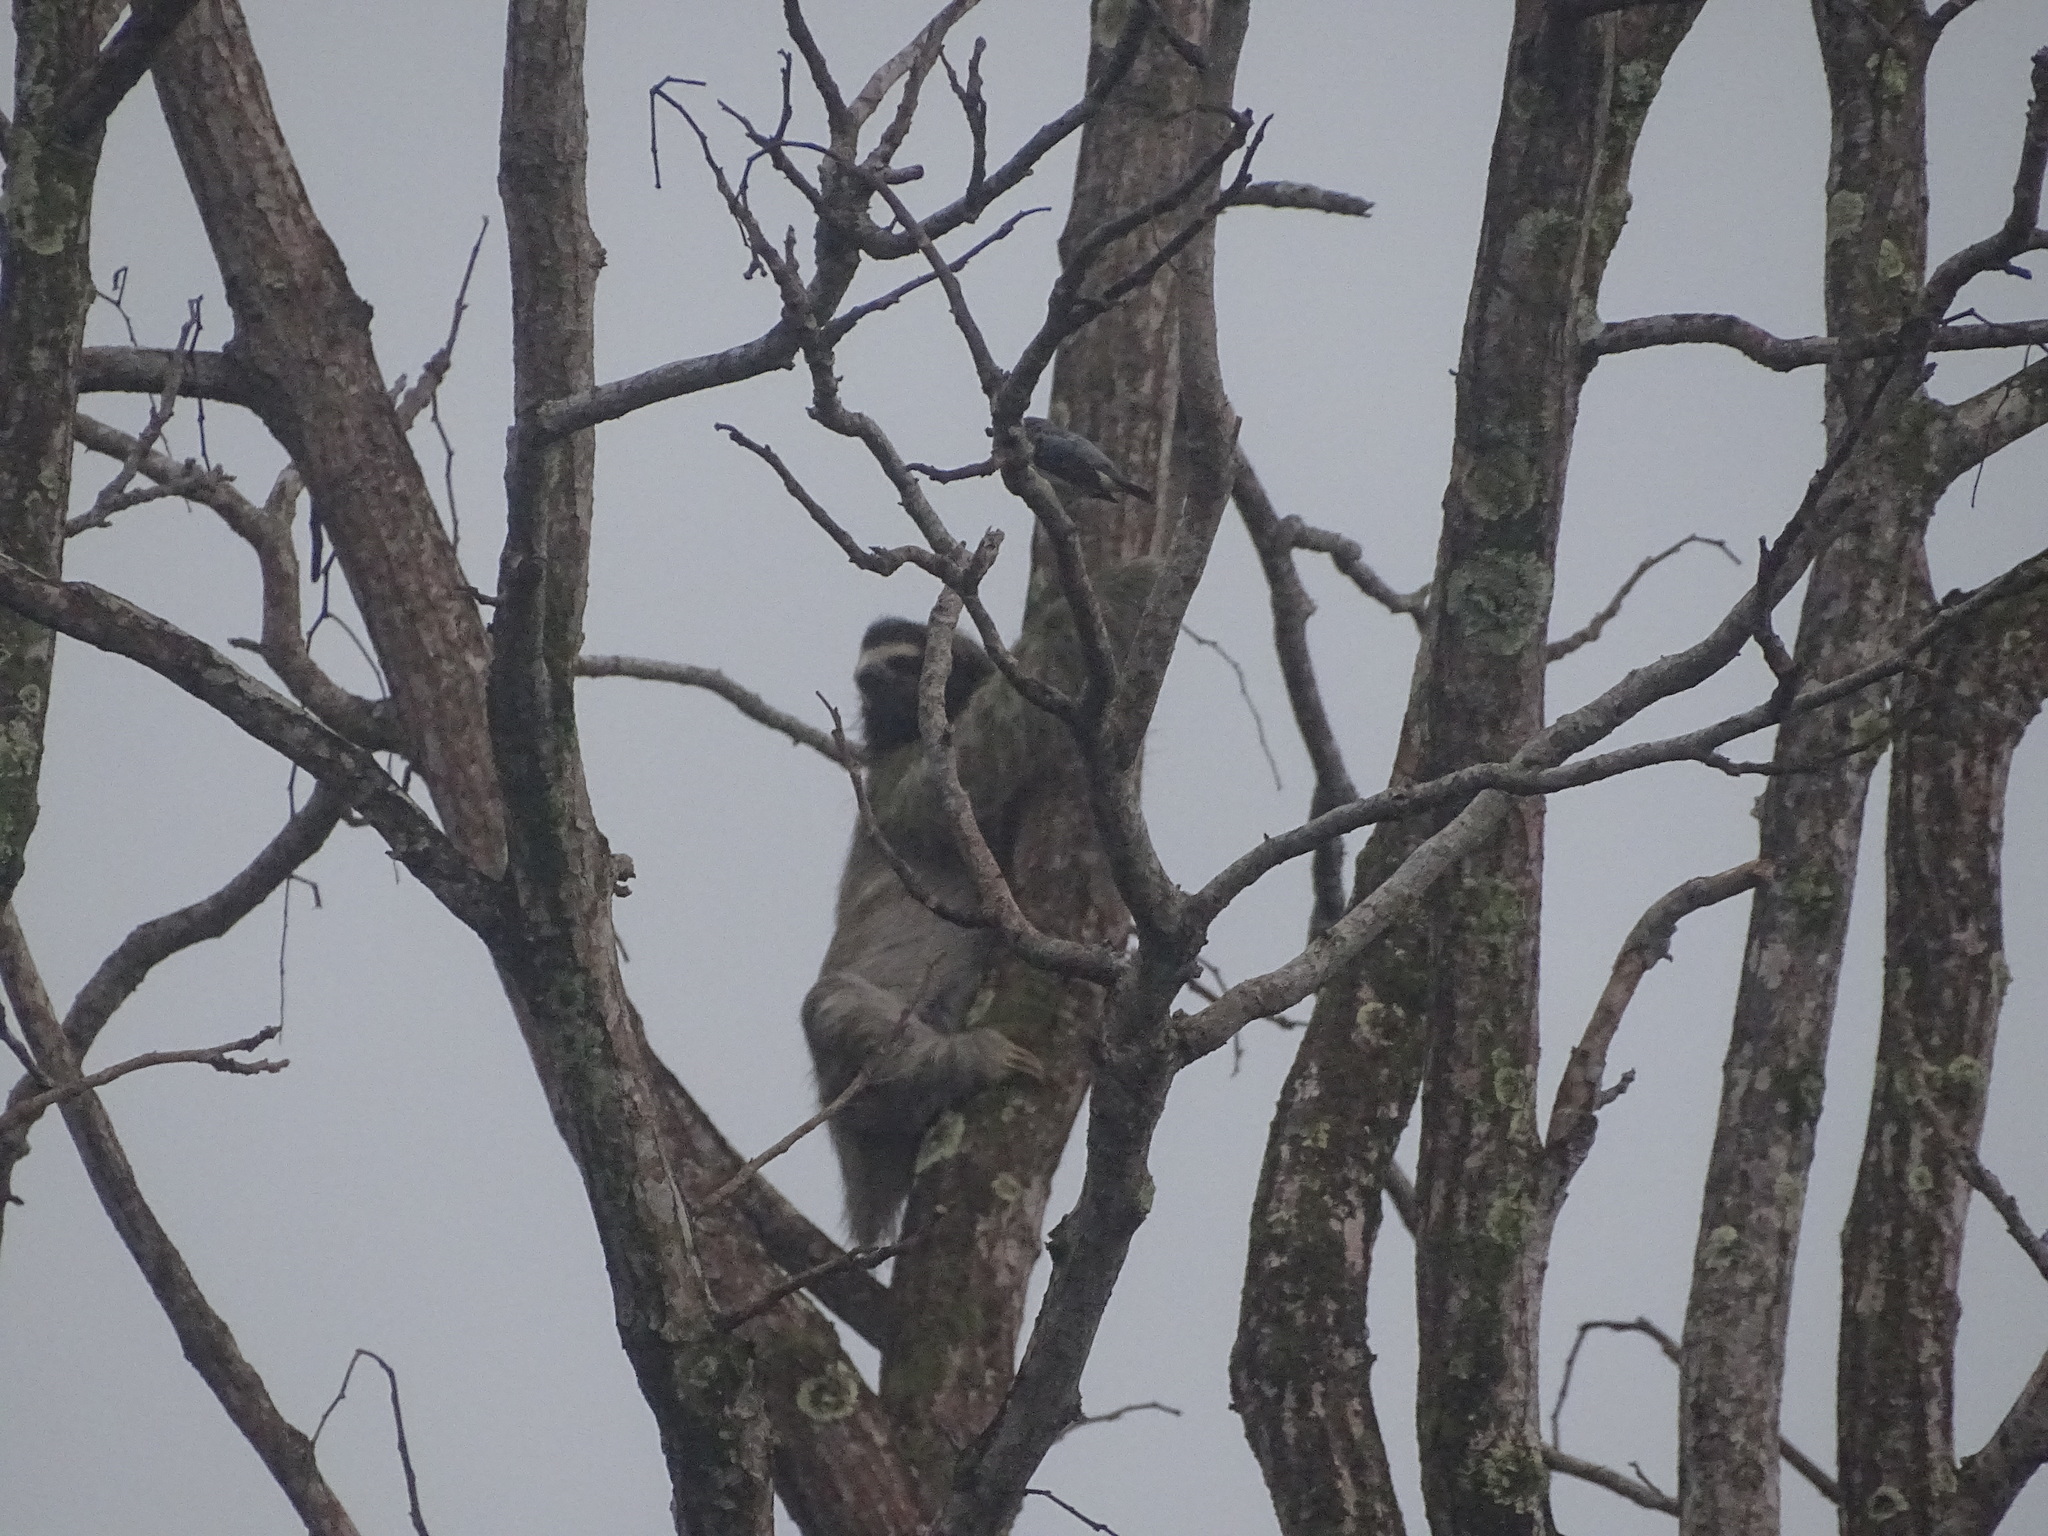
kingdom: Animalia
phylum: Chordata
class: Mammalia
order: Pilosa
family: Bradypodidae
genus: Bradypus
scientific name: Bradypus variegatus
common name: Brown-throated three-toed sloth
